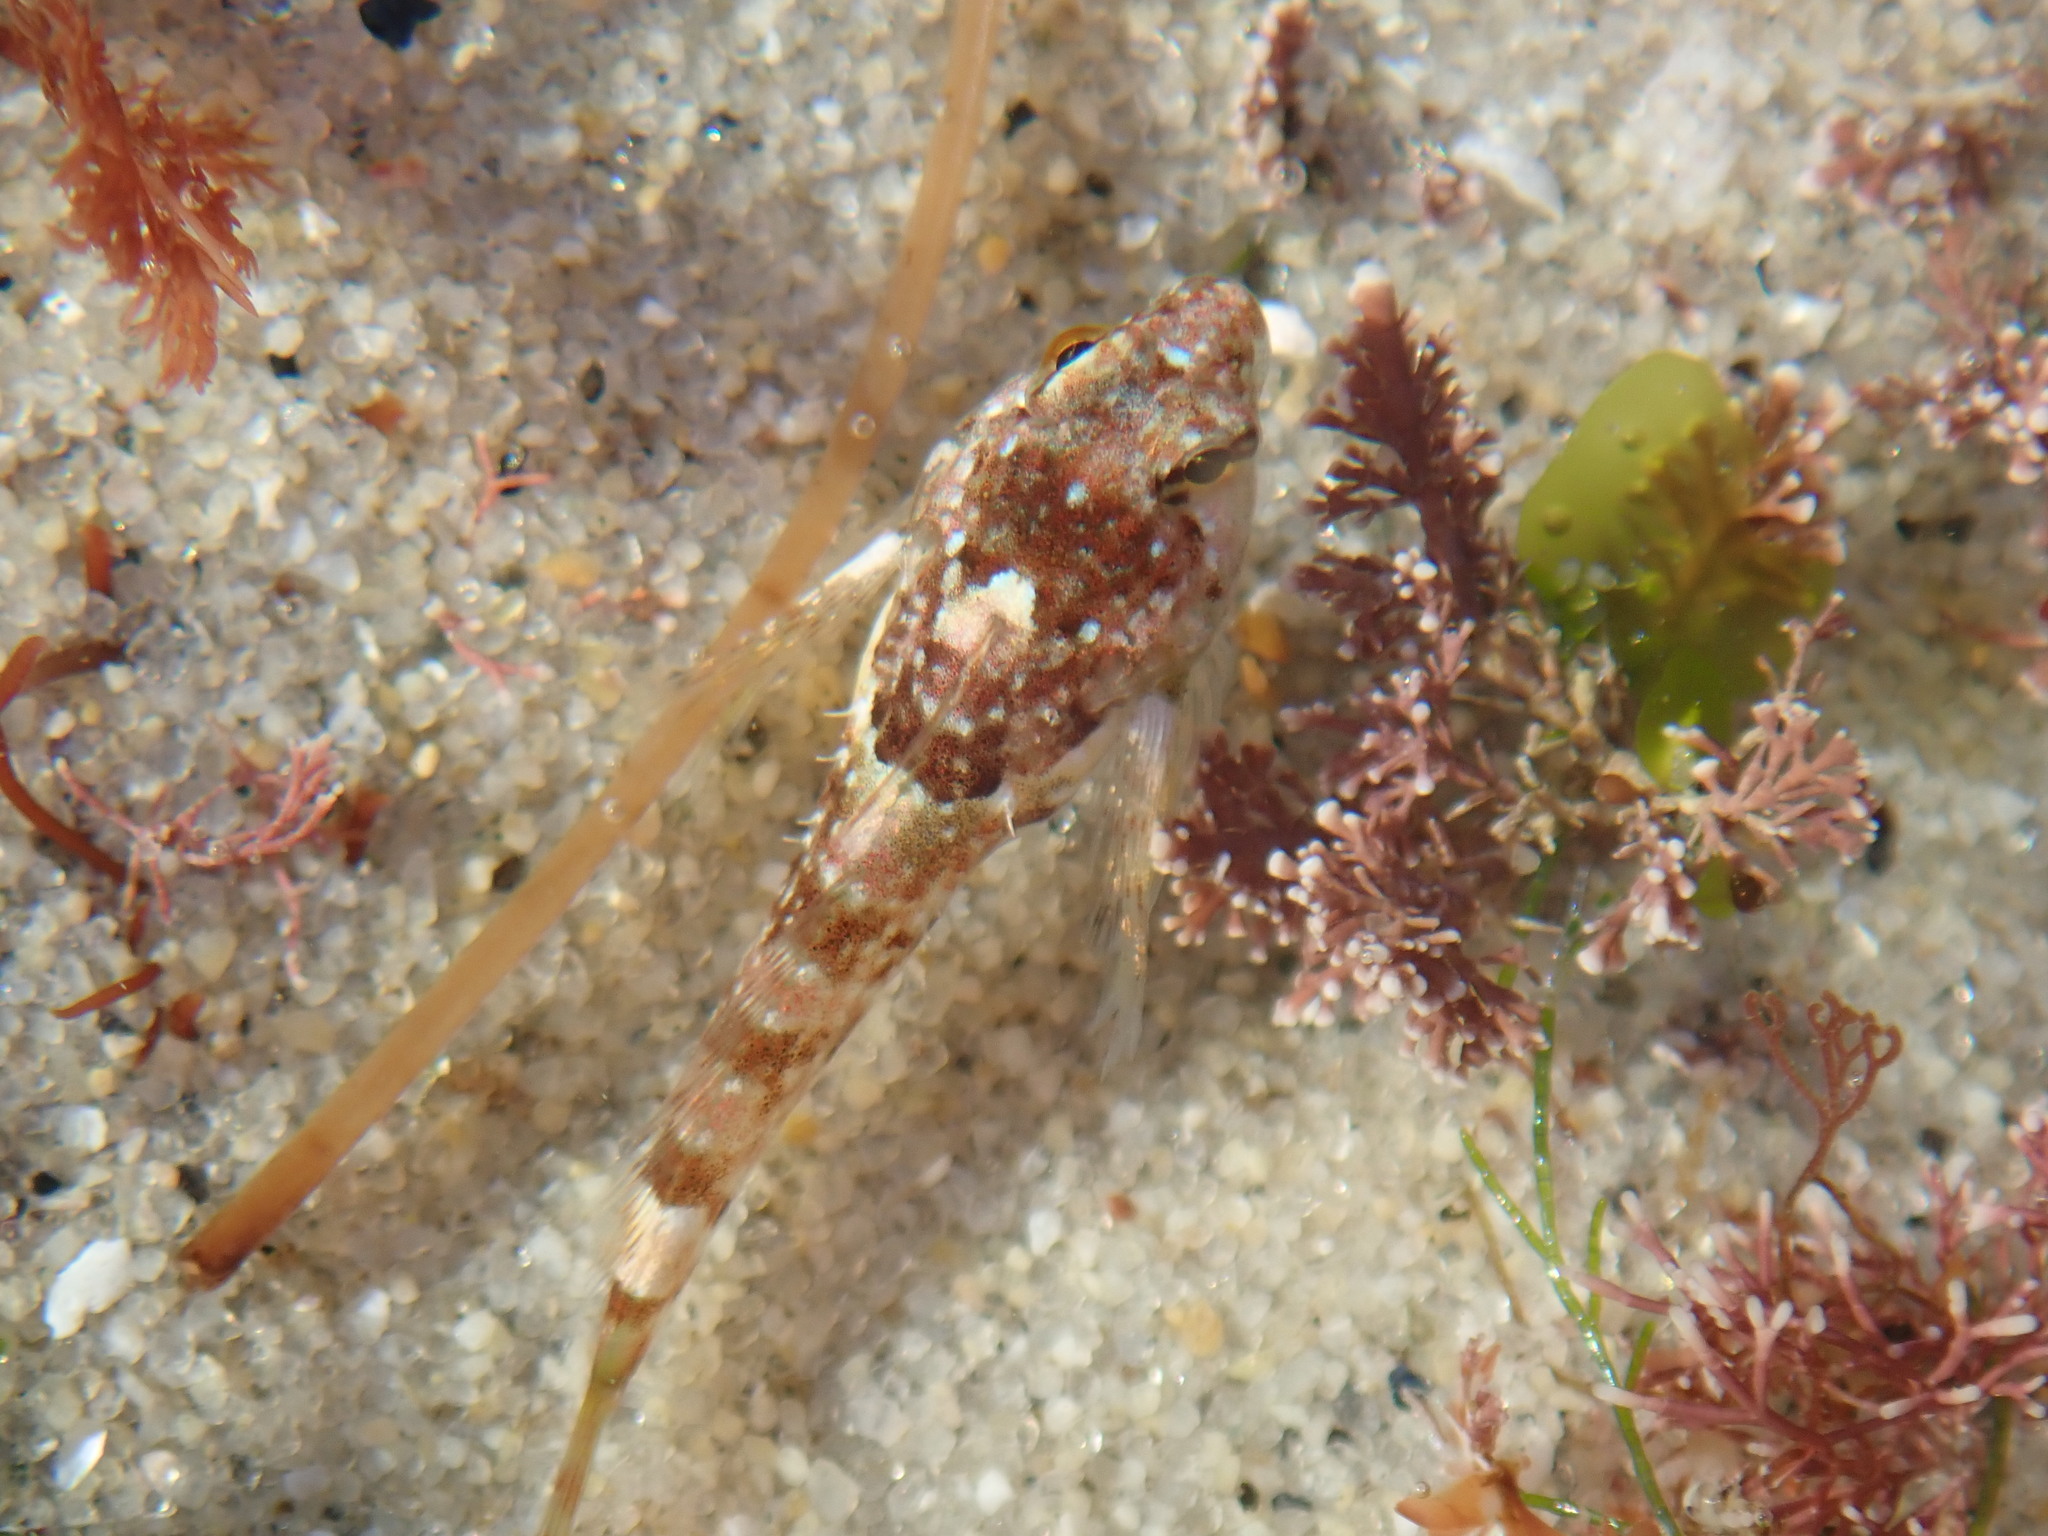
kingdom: Animalia
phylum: Chordata
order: Scorpaeniformes
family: Cottidae
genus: Clinocottus
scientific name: Clinocottus analis
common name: Woolly sculpin
